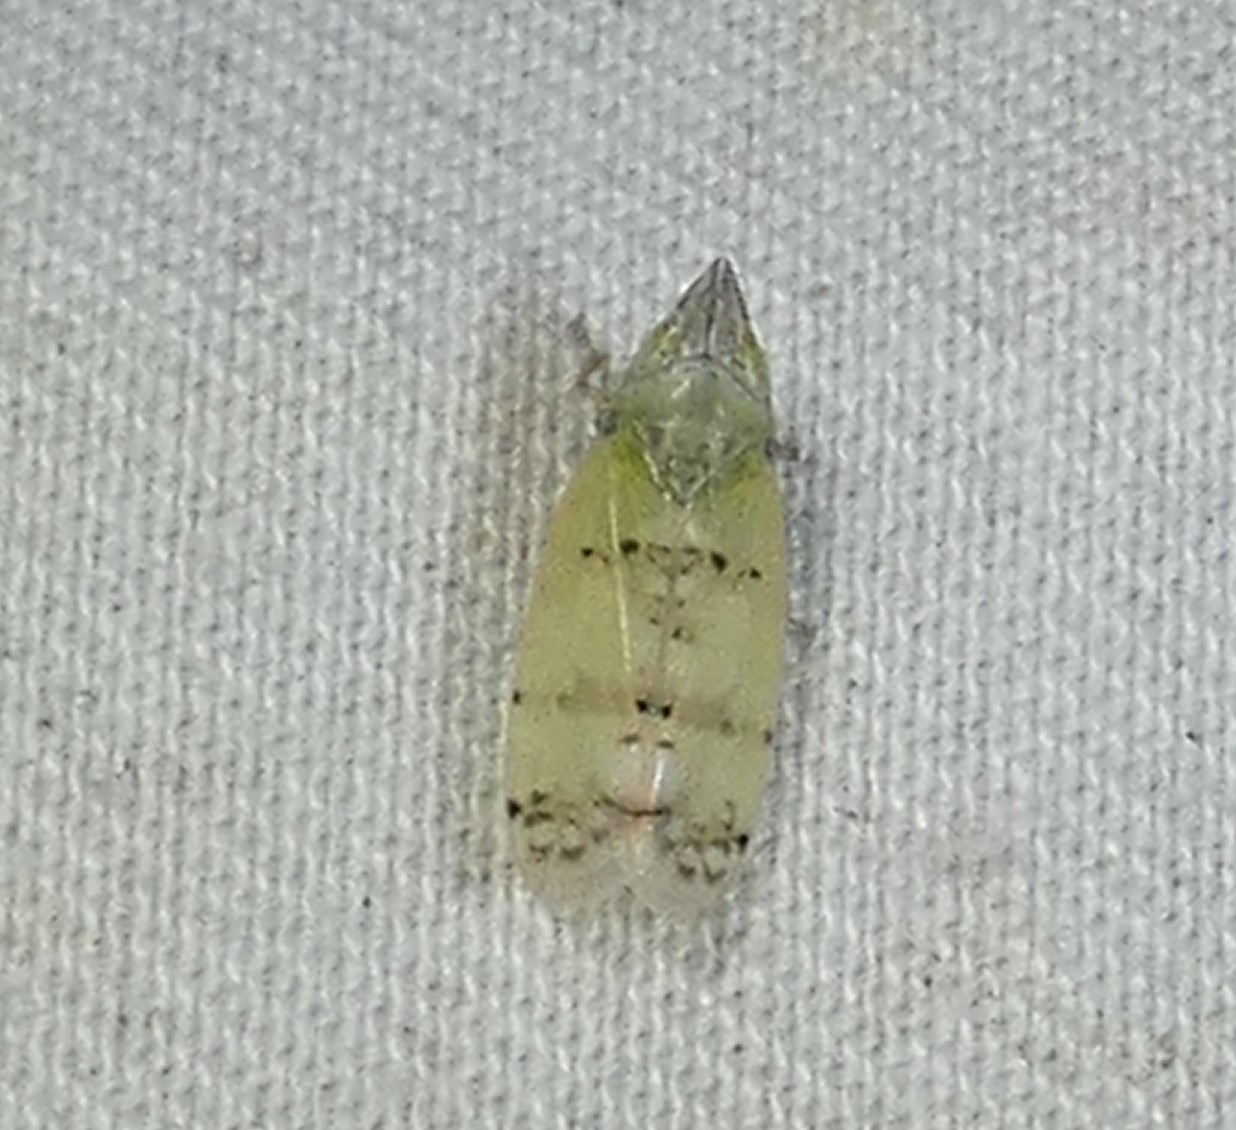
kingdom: Animalia
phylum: Arthropoda
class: Insecta
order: Hemiptera
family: Cicadellidae
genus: Japananus
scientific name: Japananus hyalinus
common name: The japanese maple leafhopper
